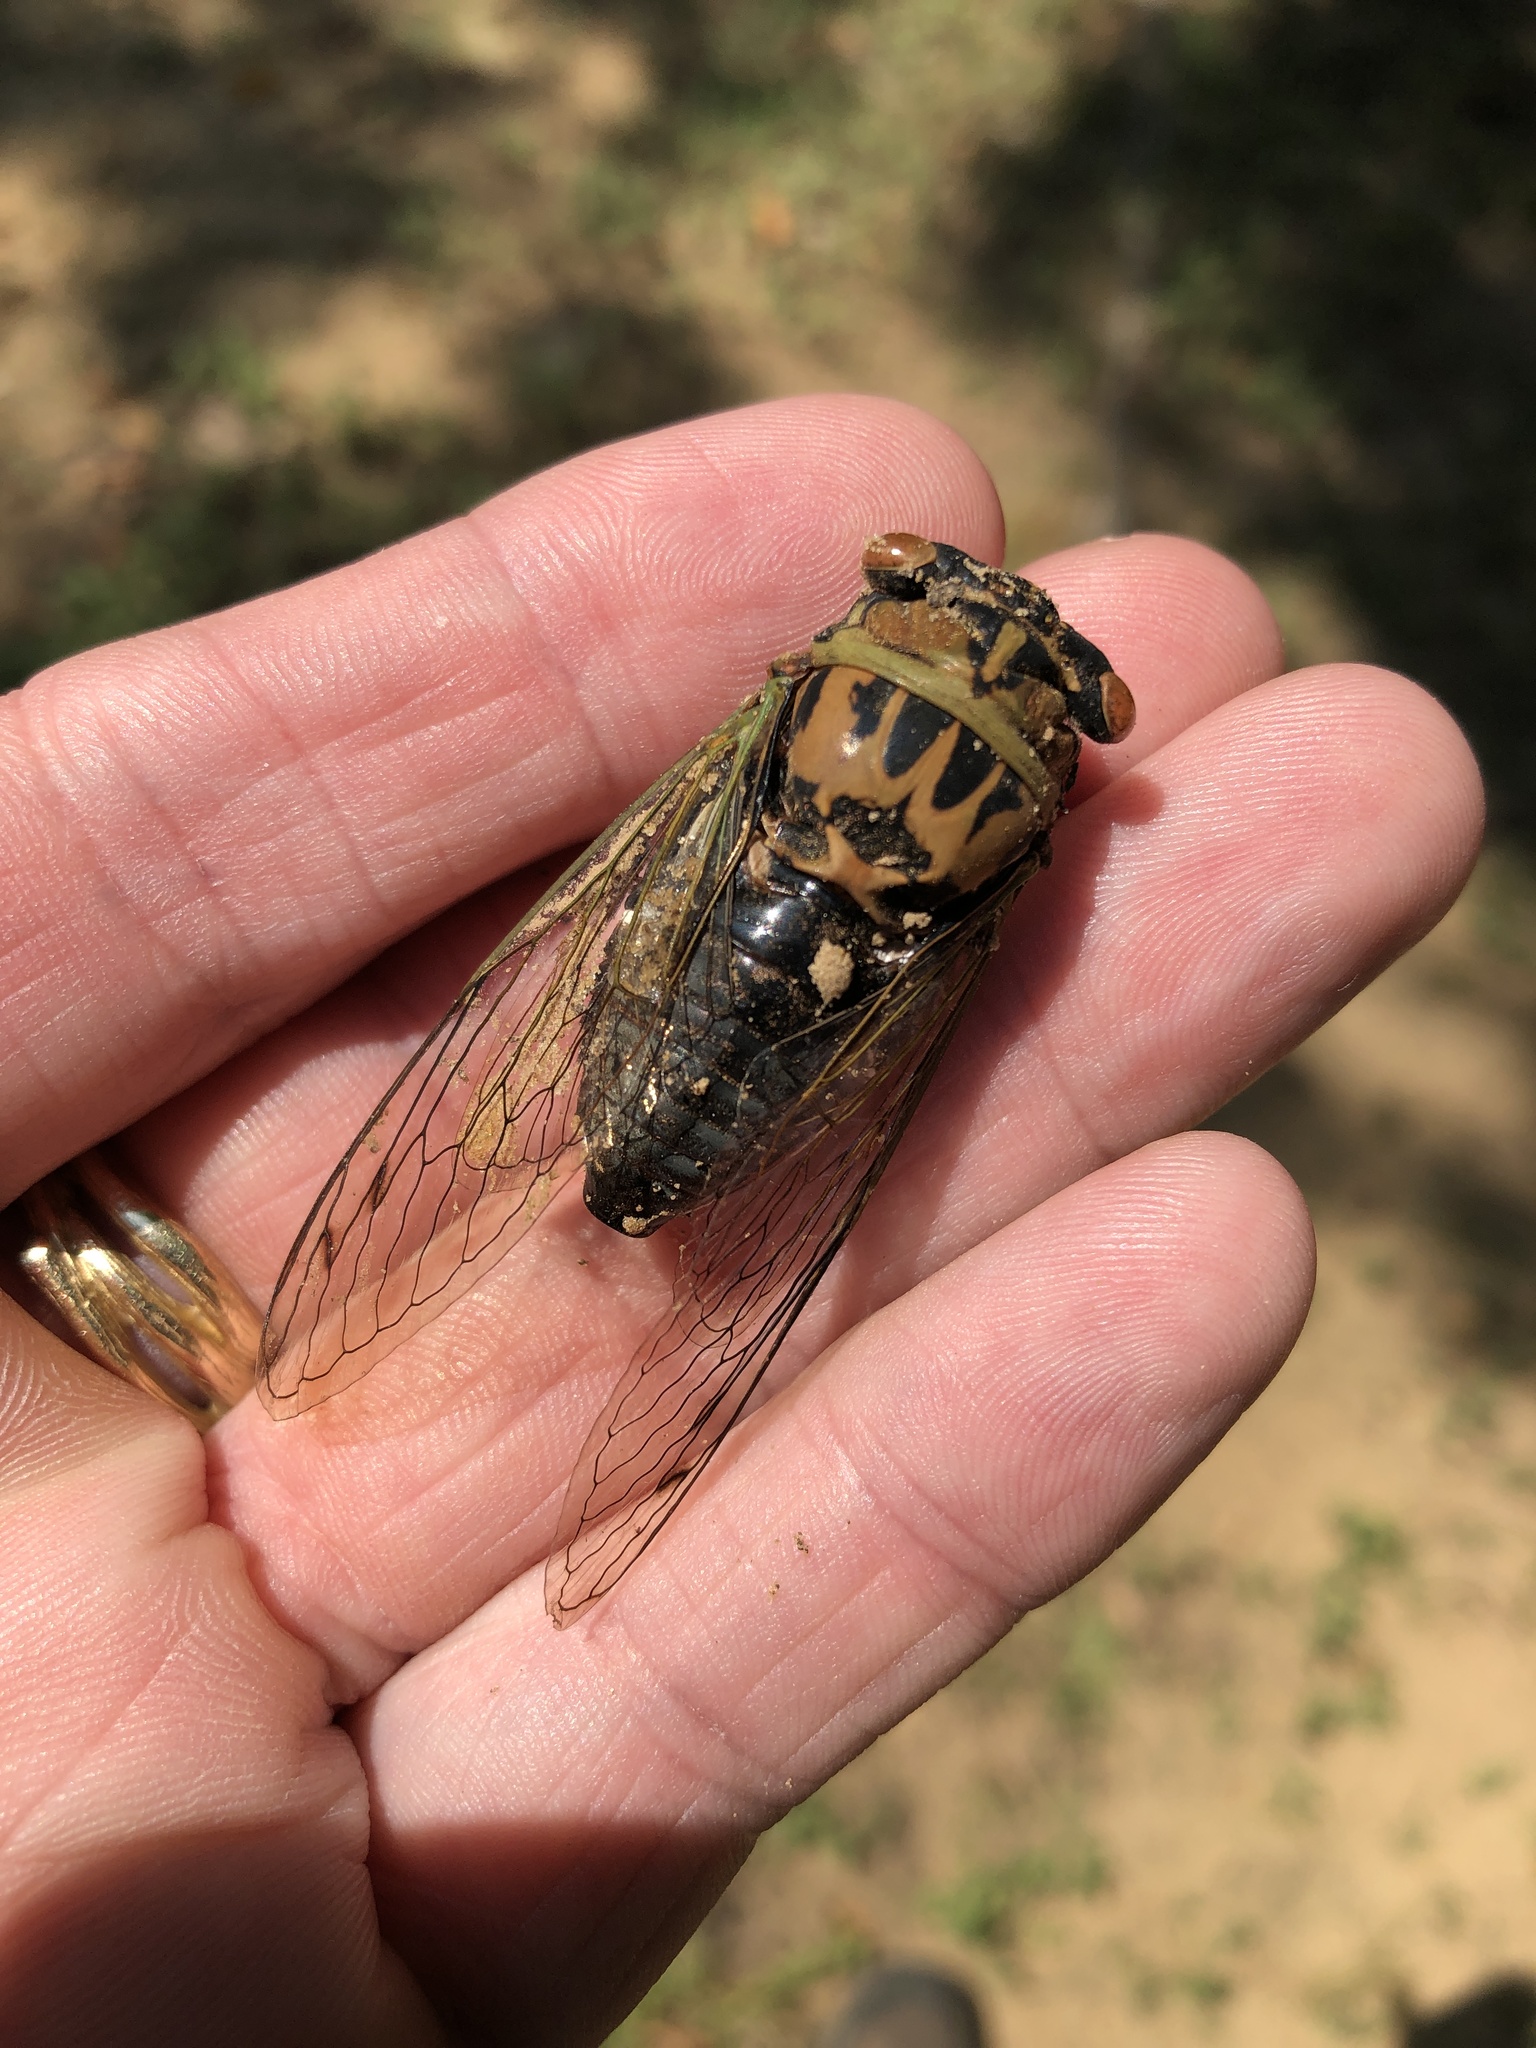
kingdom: Animalia
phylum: Arthropoda
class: Insecta
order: Hemiptera
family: Cicadidae
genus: Neotibicen
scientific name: Neotibicen pruinosus
